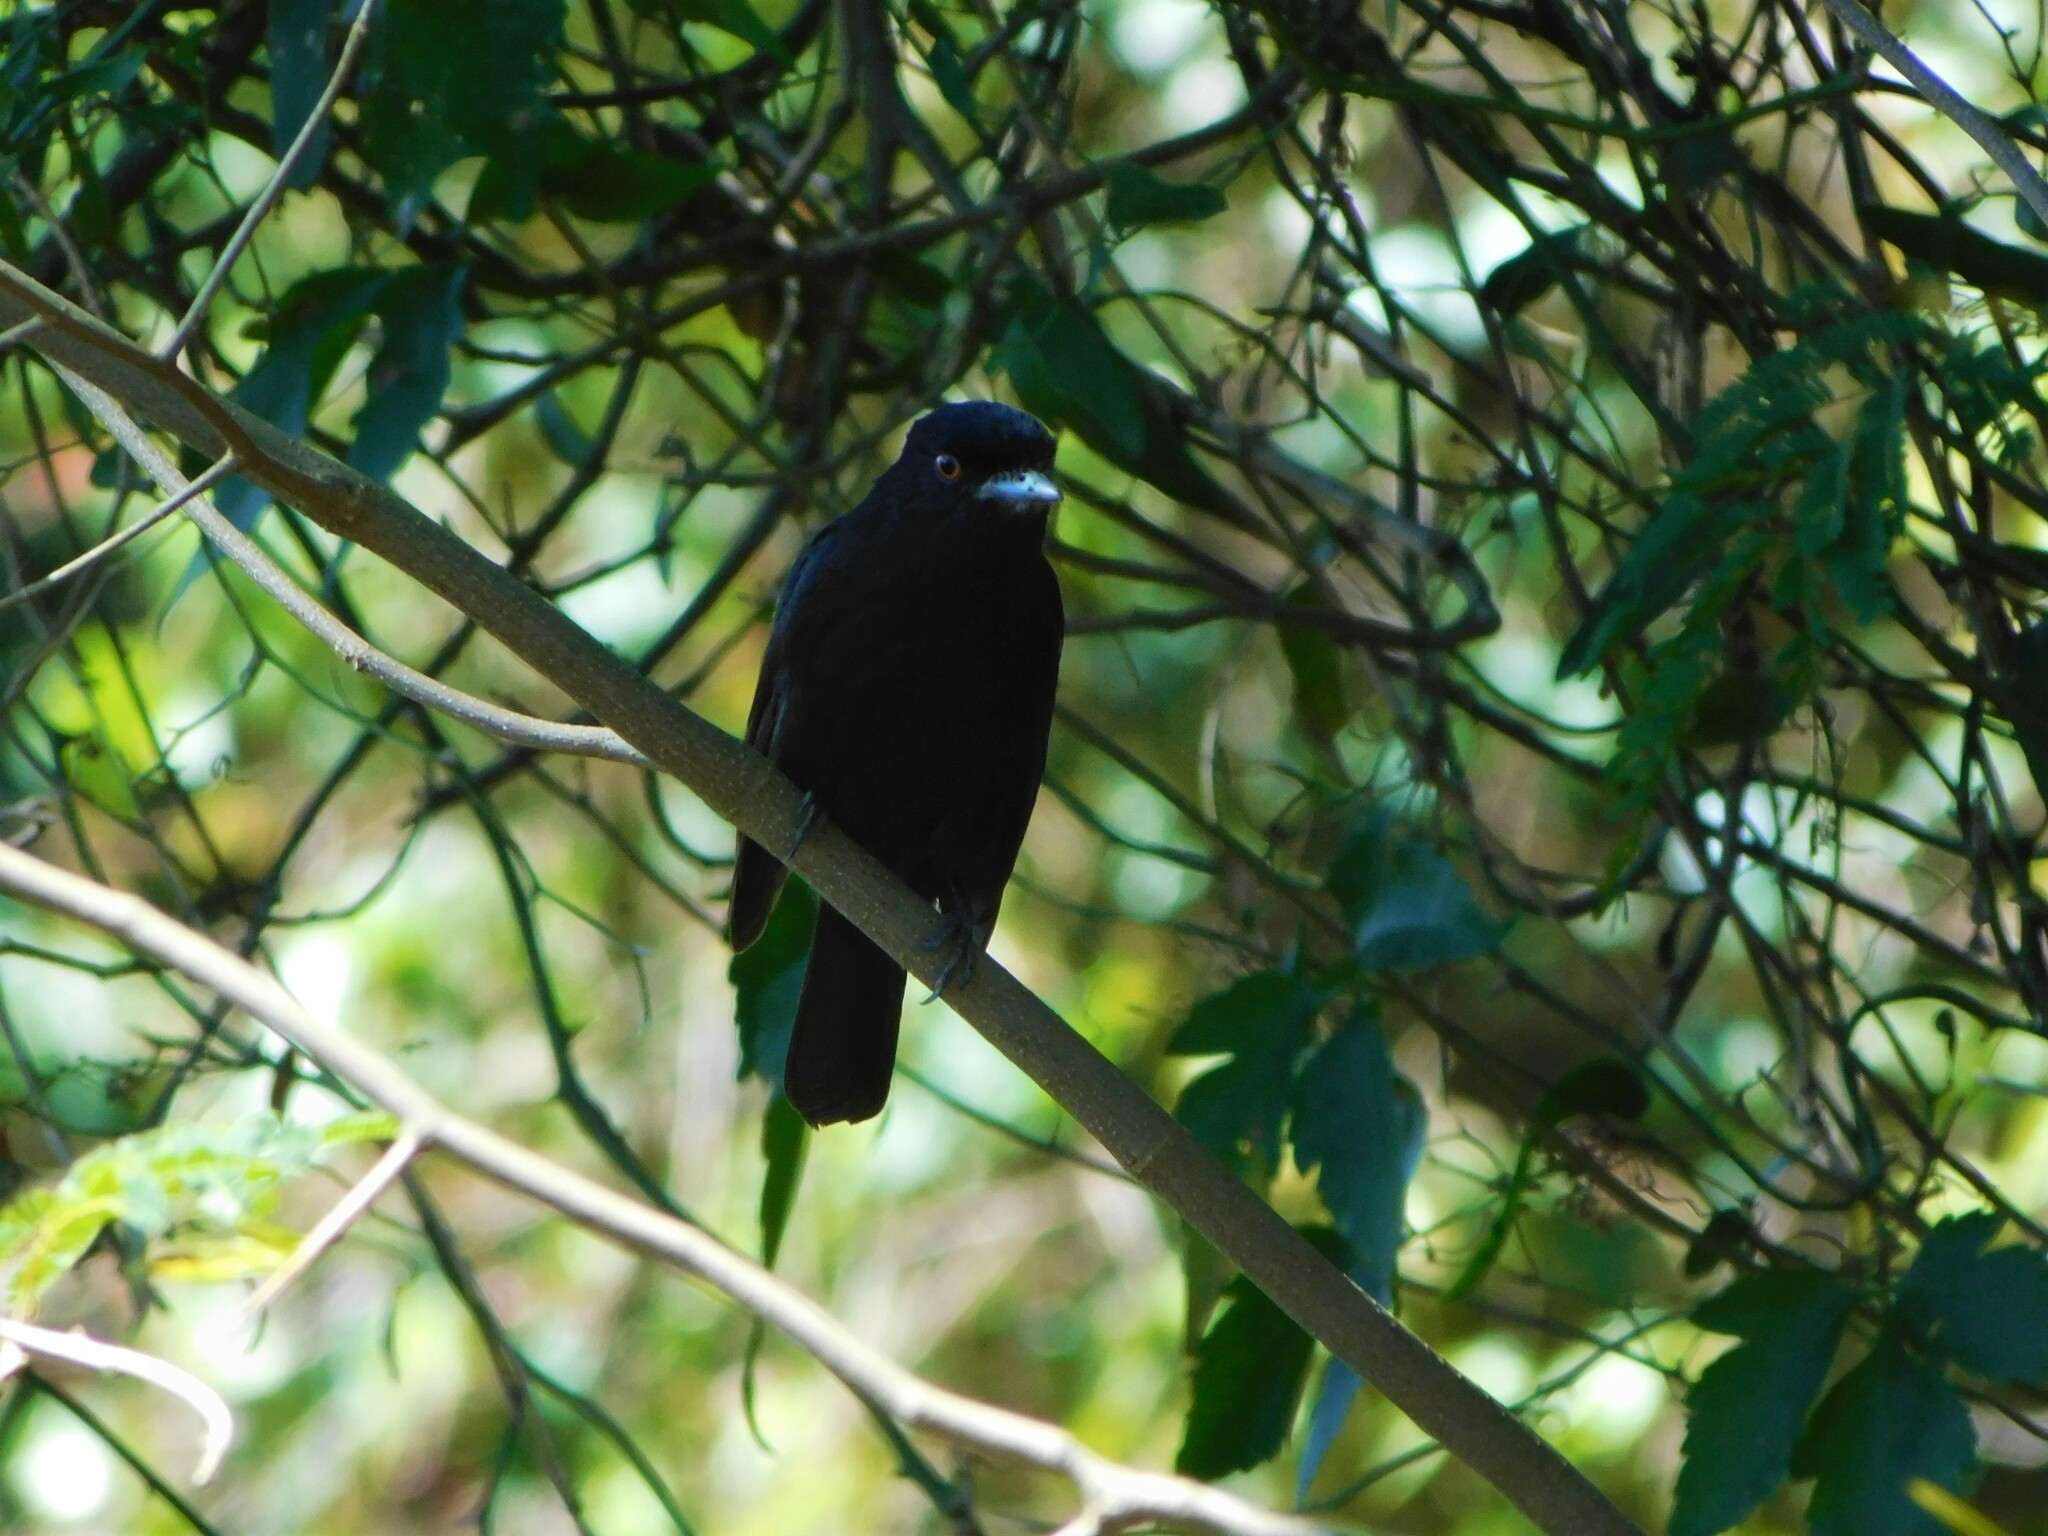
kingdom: Animalia
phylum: Chordata
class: Aves
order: Passeriformes
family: Tyrannidae
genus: Knipolegus
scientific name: Knipolegus cyanirostris
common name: Blue-billed black tyrant
